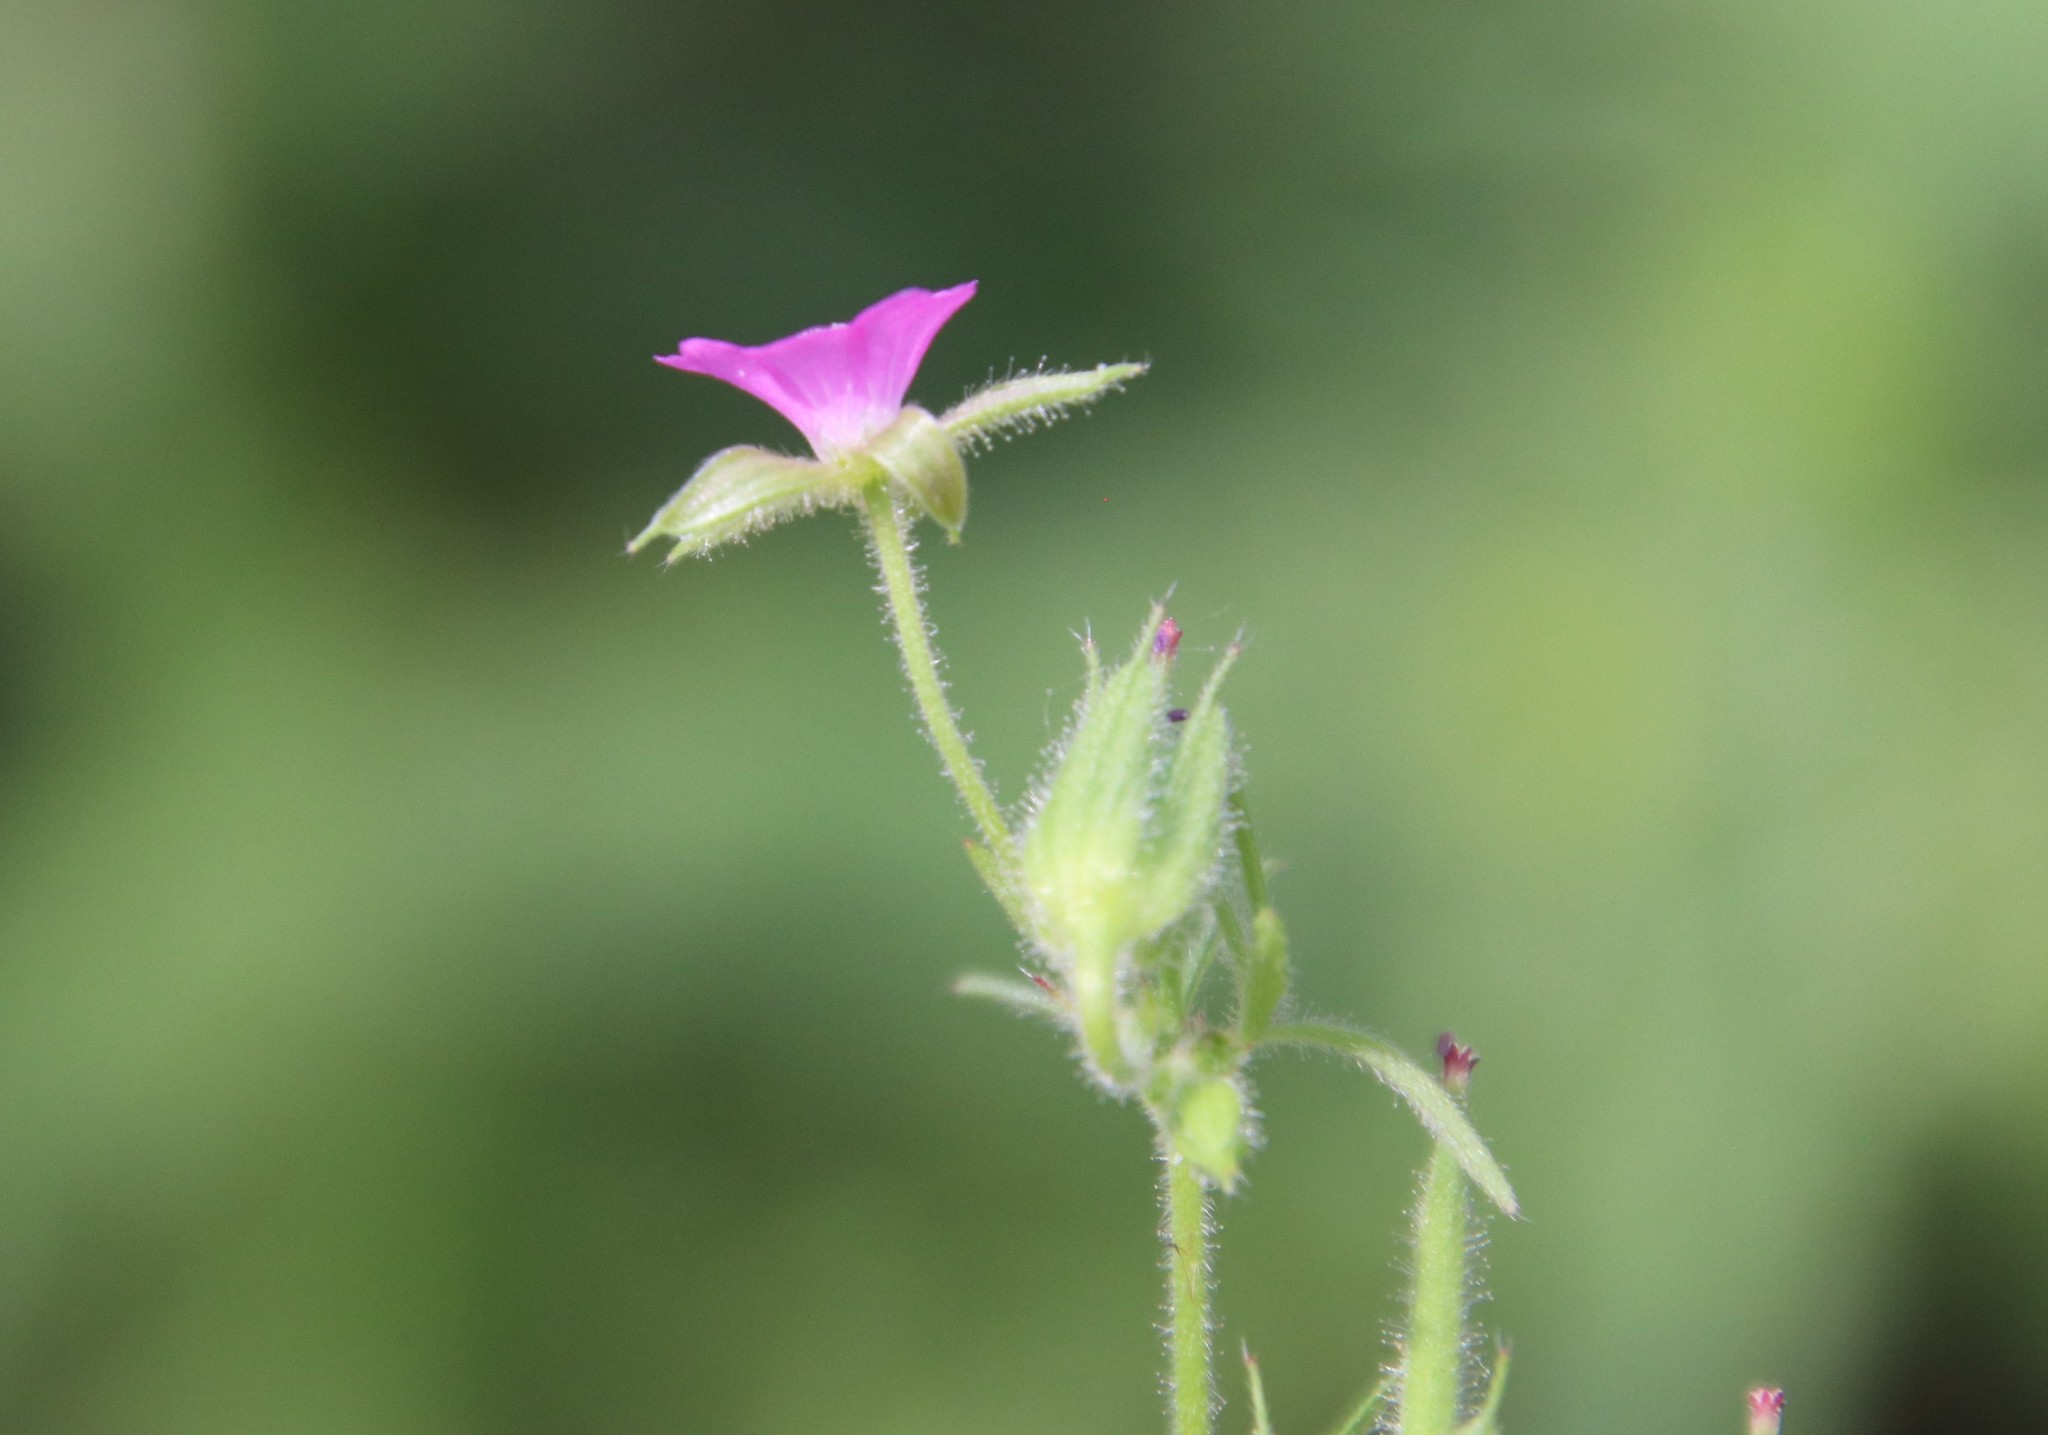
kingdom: Plantae
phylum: Tracheophyta
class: Magnoliopsida
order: Geraniales
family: Geraniaceae
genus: Geranium
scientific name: Geranium dissectum
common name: Cut-leaved crane's-bill
